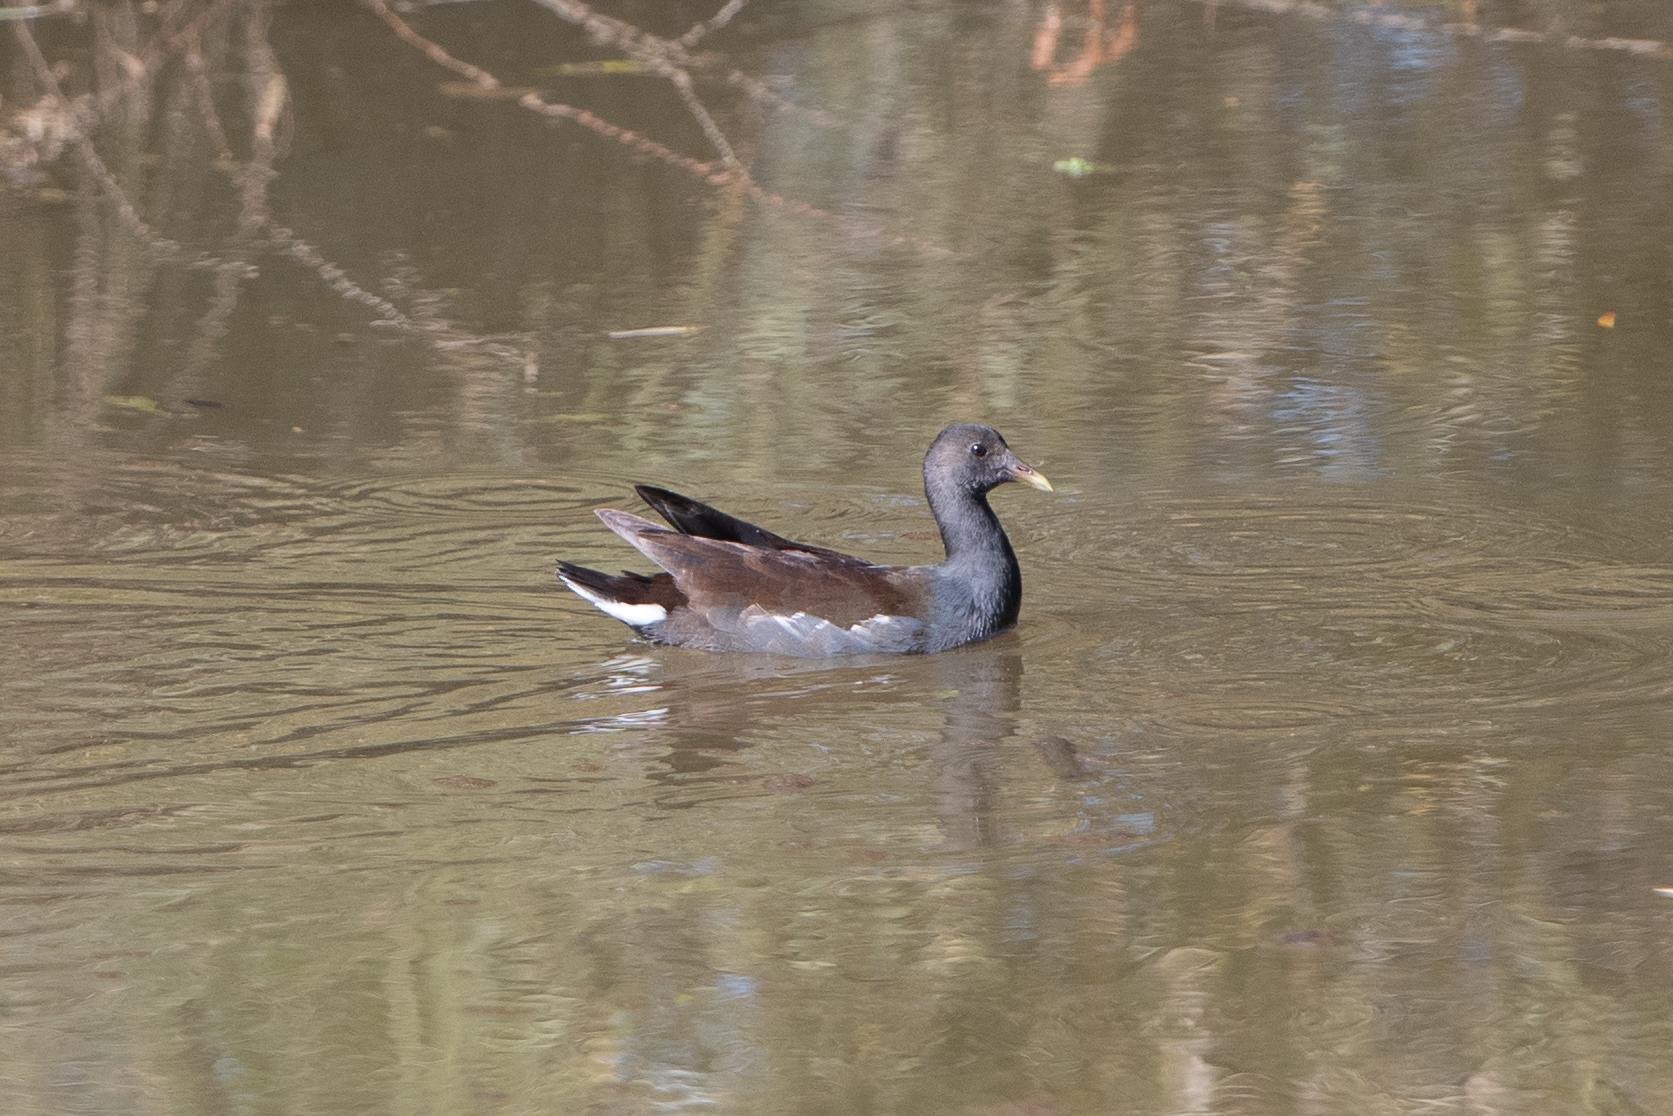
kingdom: Animalia
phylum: Chordata
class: Aves
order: Gruiformes
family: Rallidae
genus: Gallinula
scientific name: Gallinula chloropus
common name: Common moorhen
